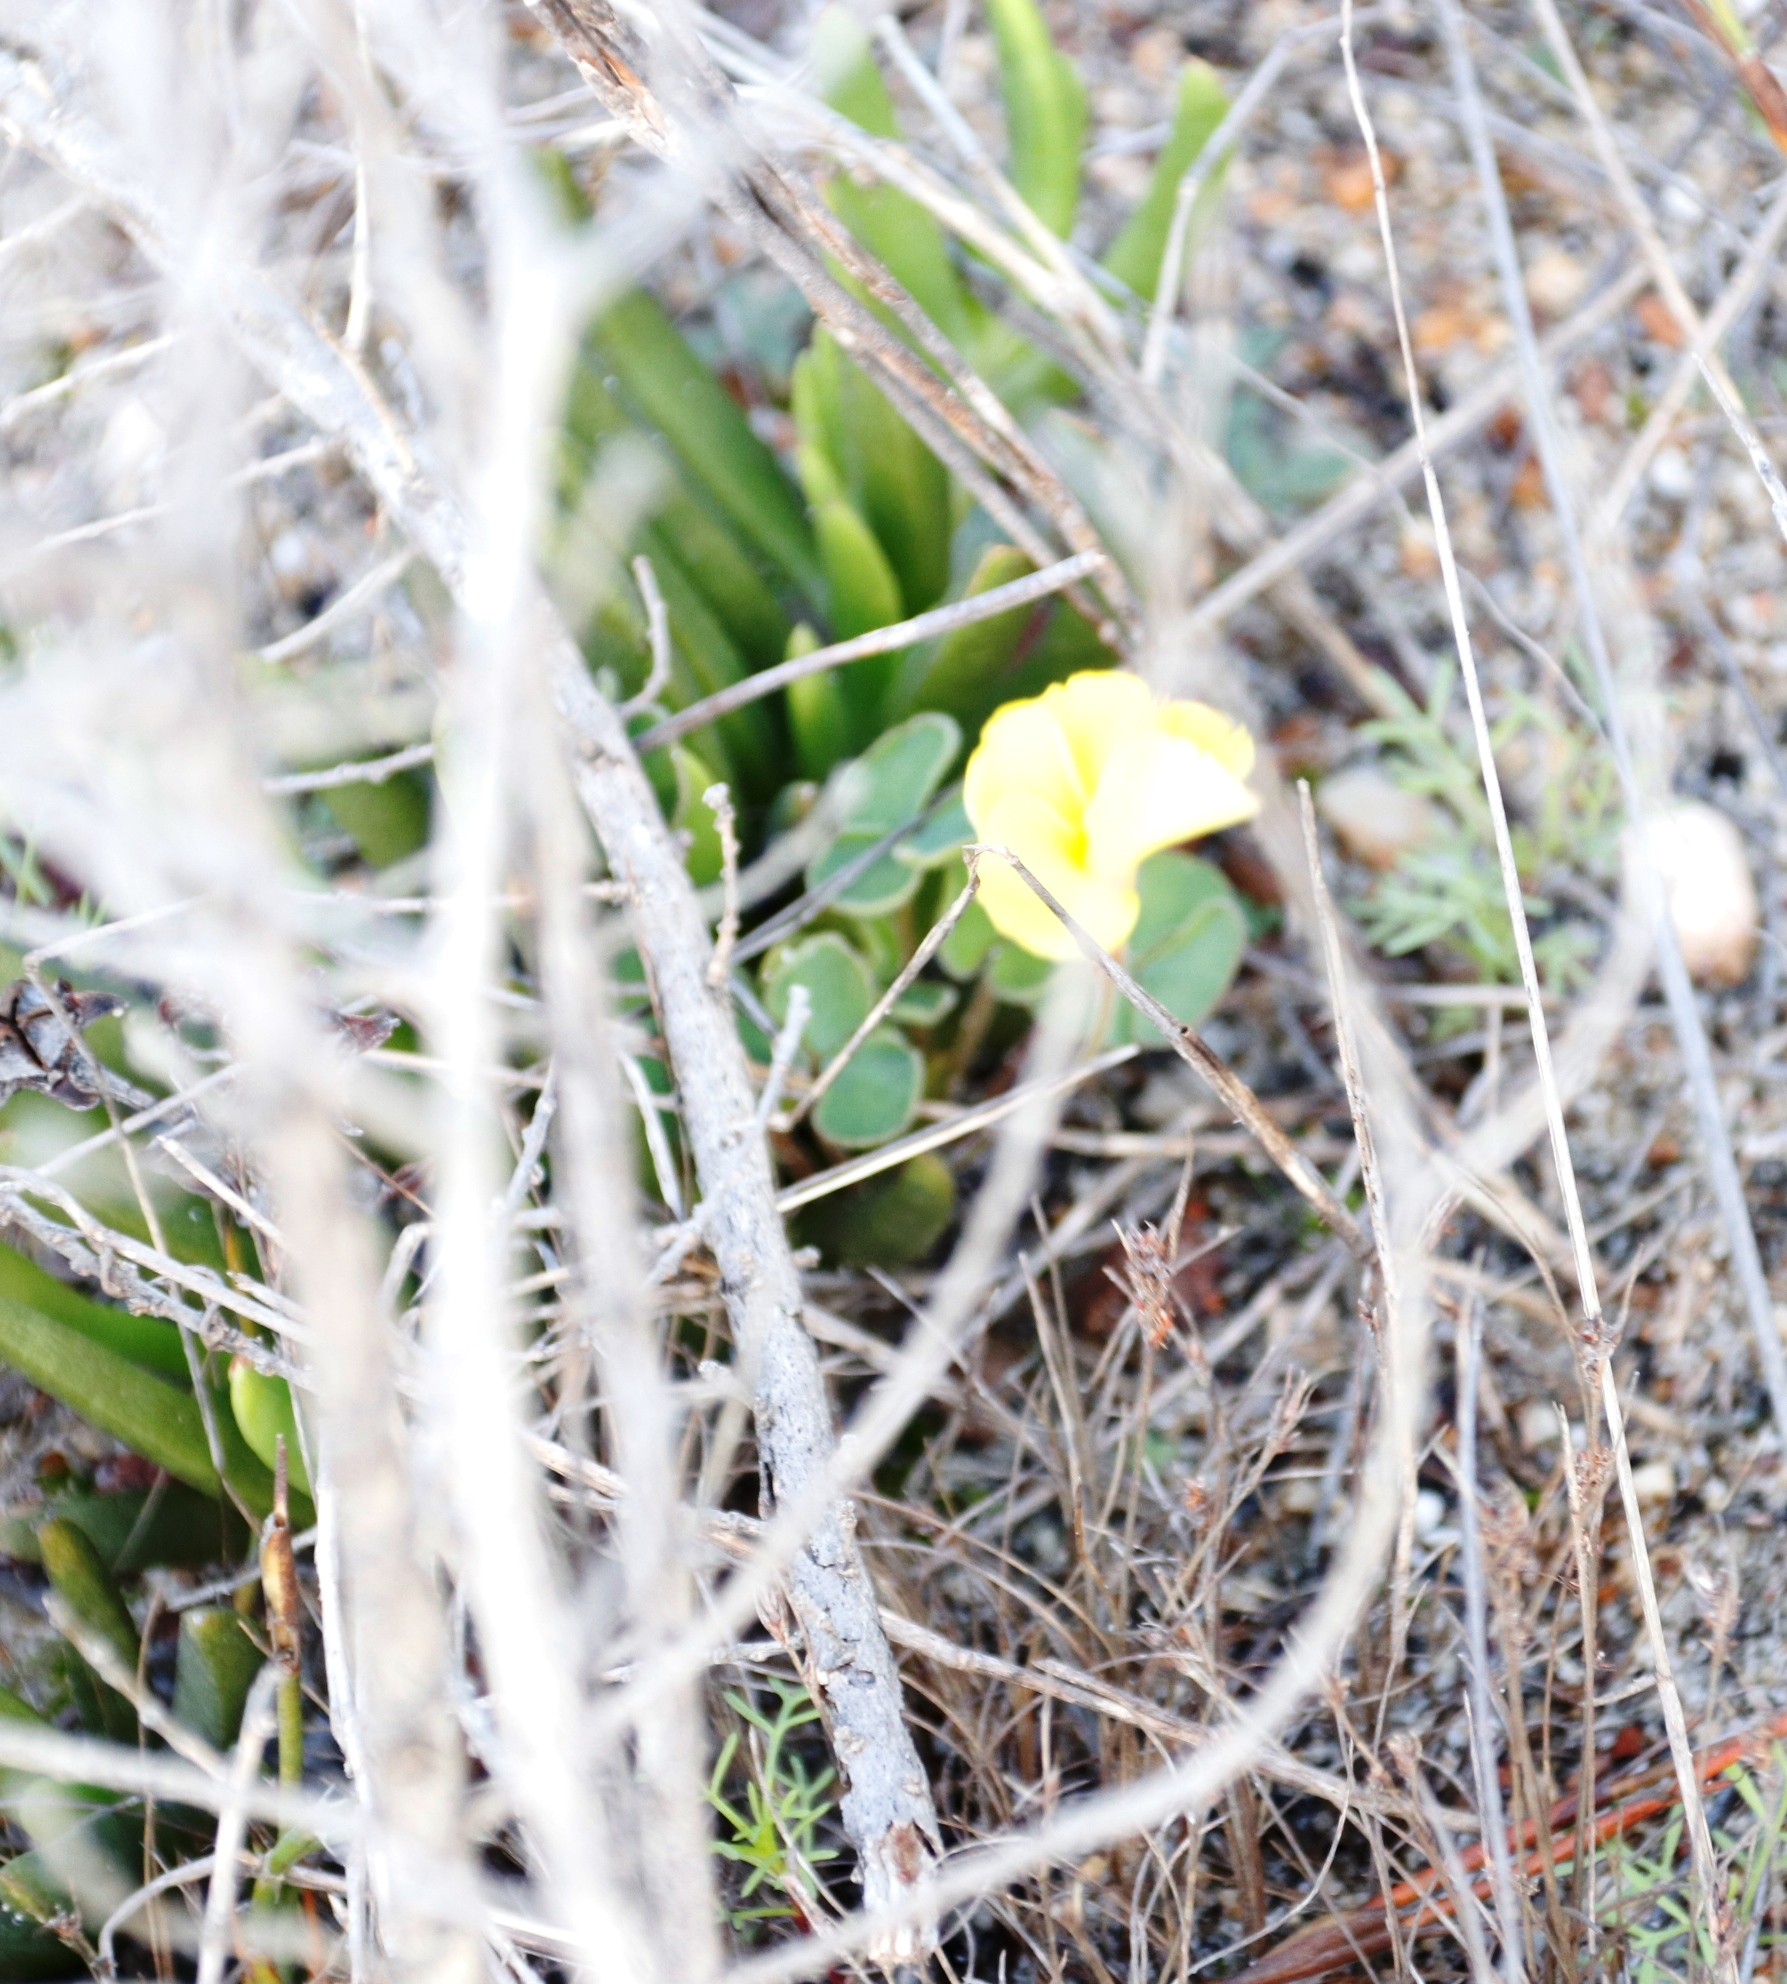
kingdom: Plantae
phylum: Tracheophyta
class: Magnoliopsida
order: Oxalidales
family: Oxalidaceae
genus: Oxalis
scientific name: Oxalis luteola
